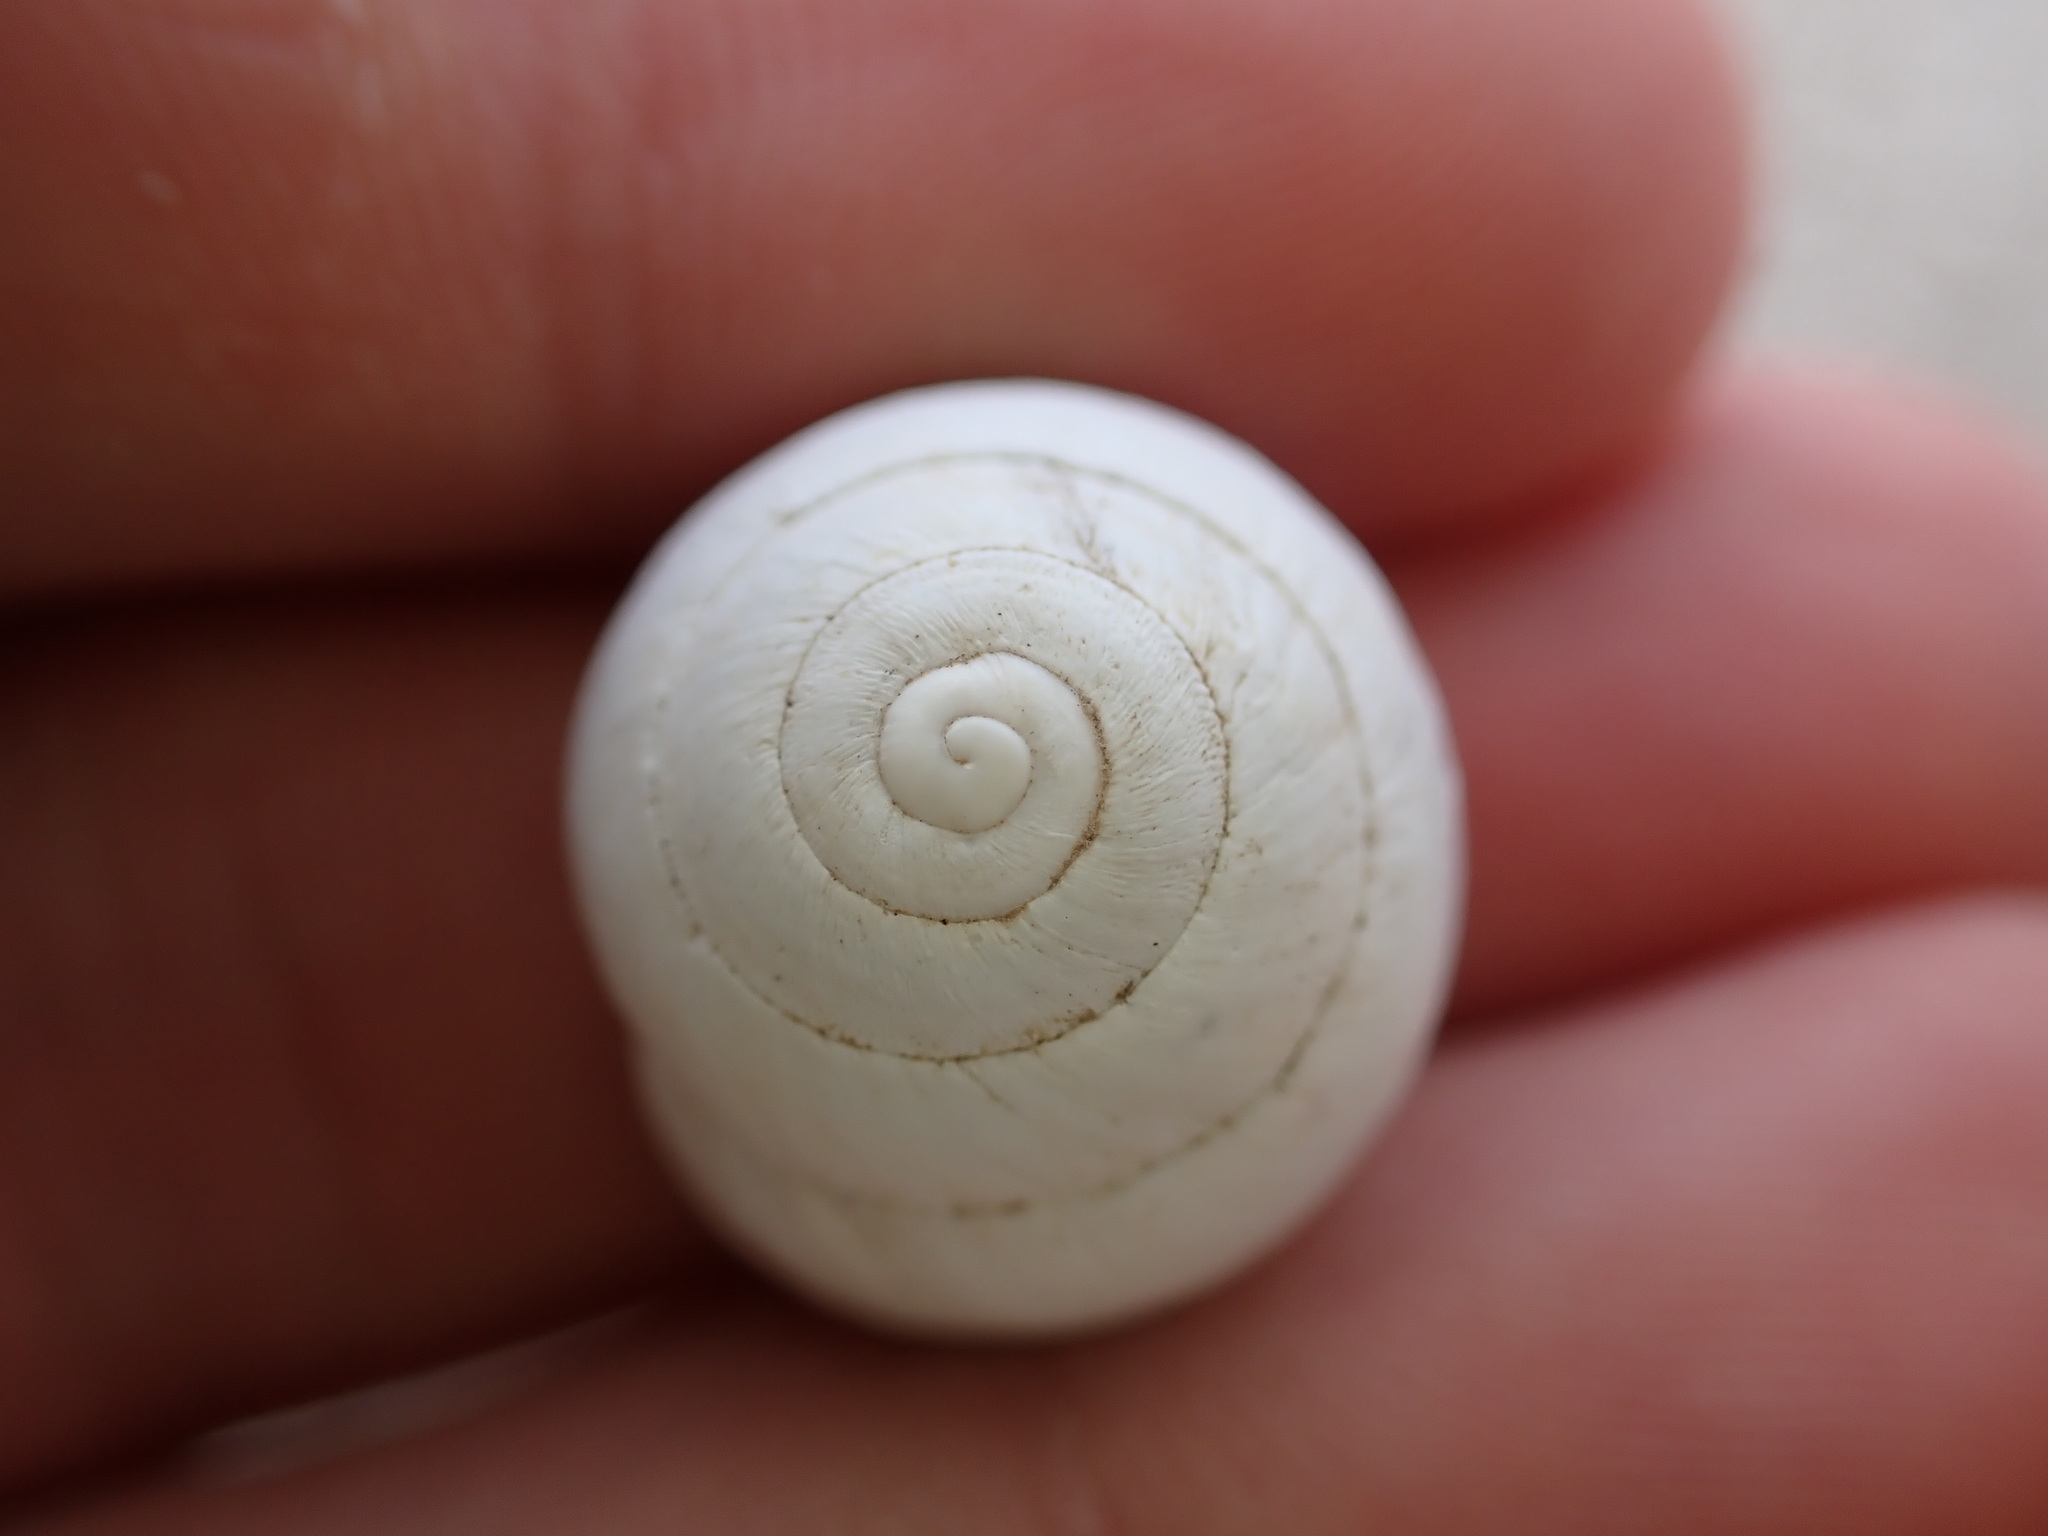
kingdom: Animalia
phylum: Mollusca
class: Gastropoda
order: Stylommatophora
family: Sphincterochilidae
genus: Sphincterochila
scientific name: Sphincterochila candidissima
